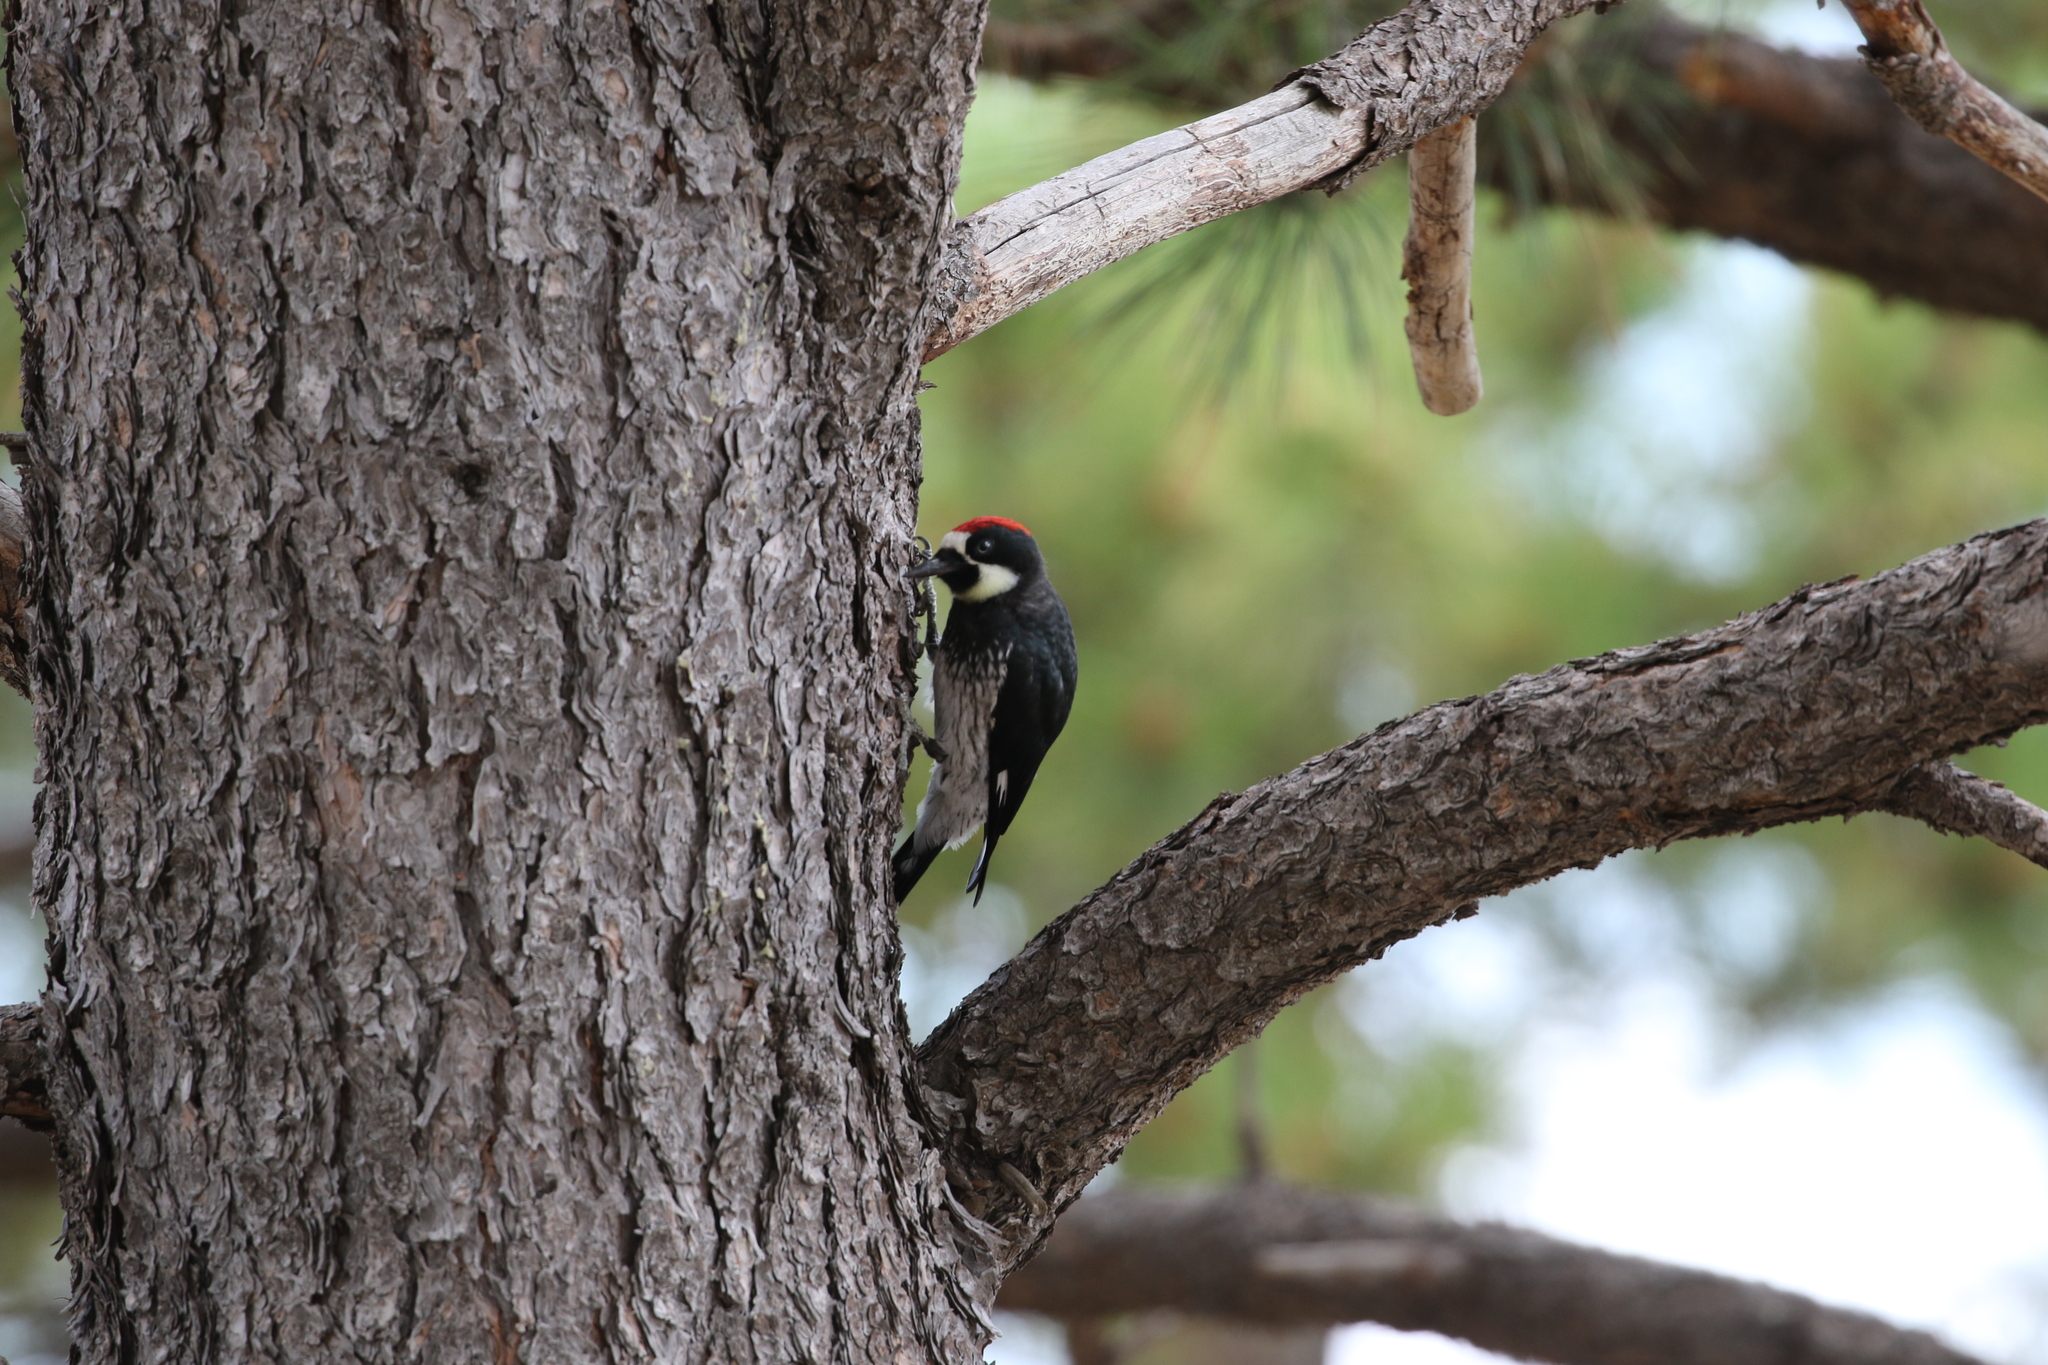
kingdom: Animalia
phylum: Chordata
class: Aves
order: Piciformes
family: Picidae
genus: Melanerpes
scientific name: Melanerpes formicivorus
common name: Acorn woodpecker
